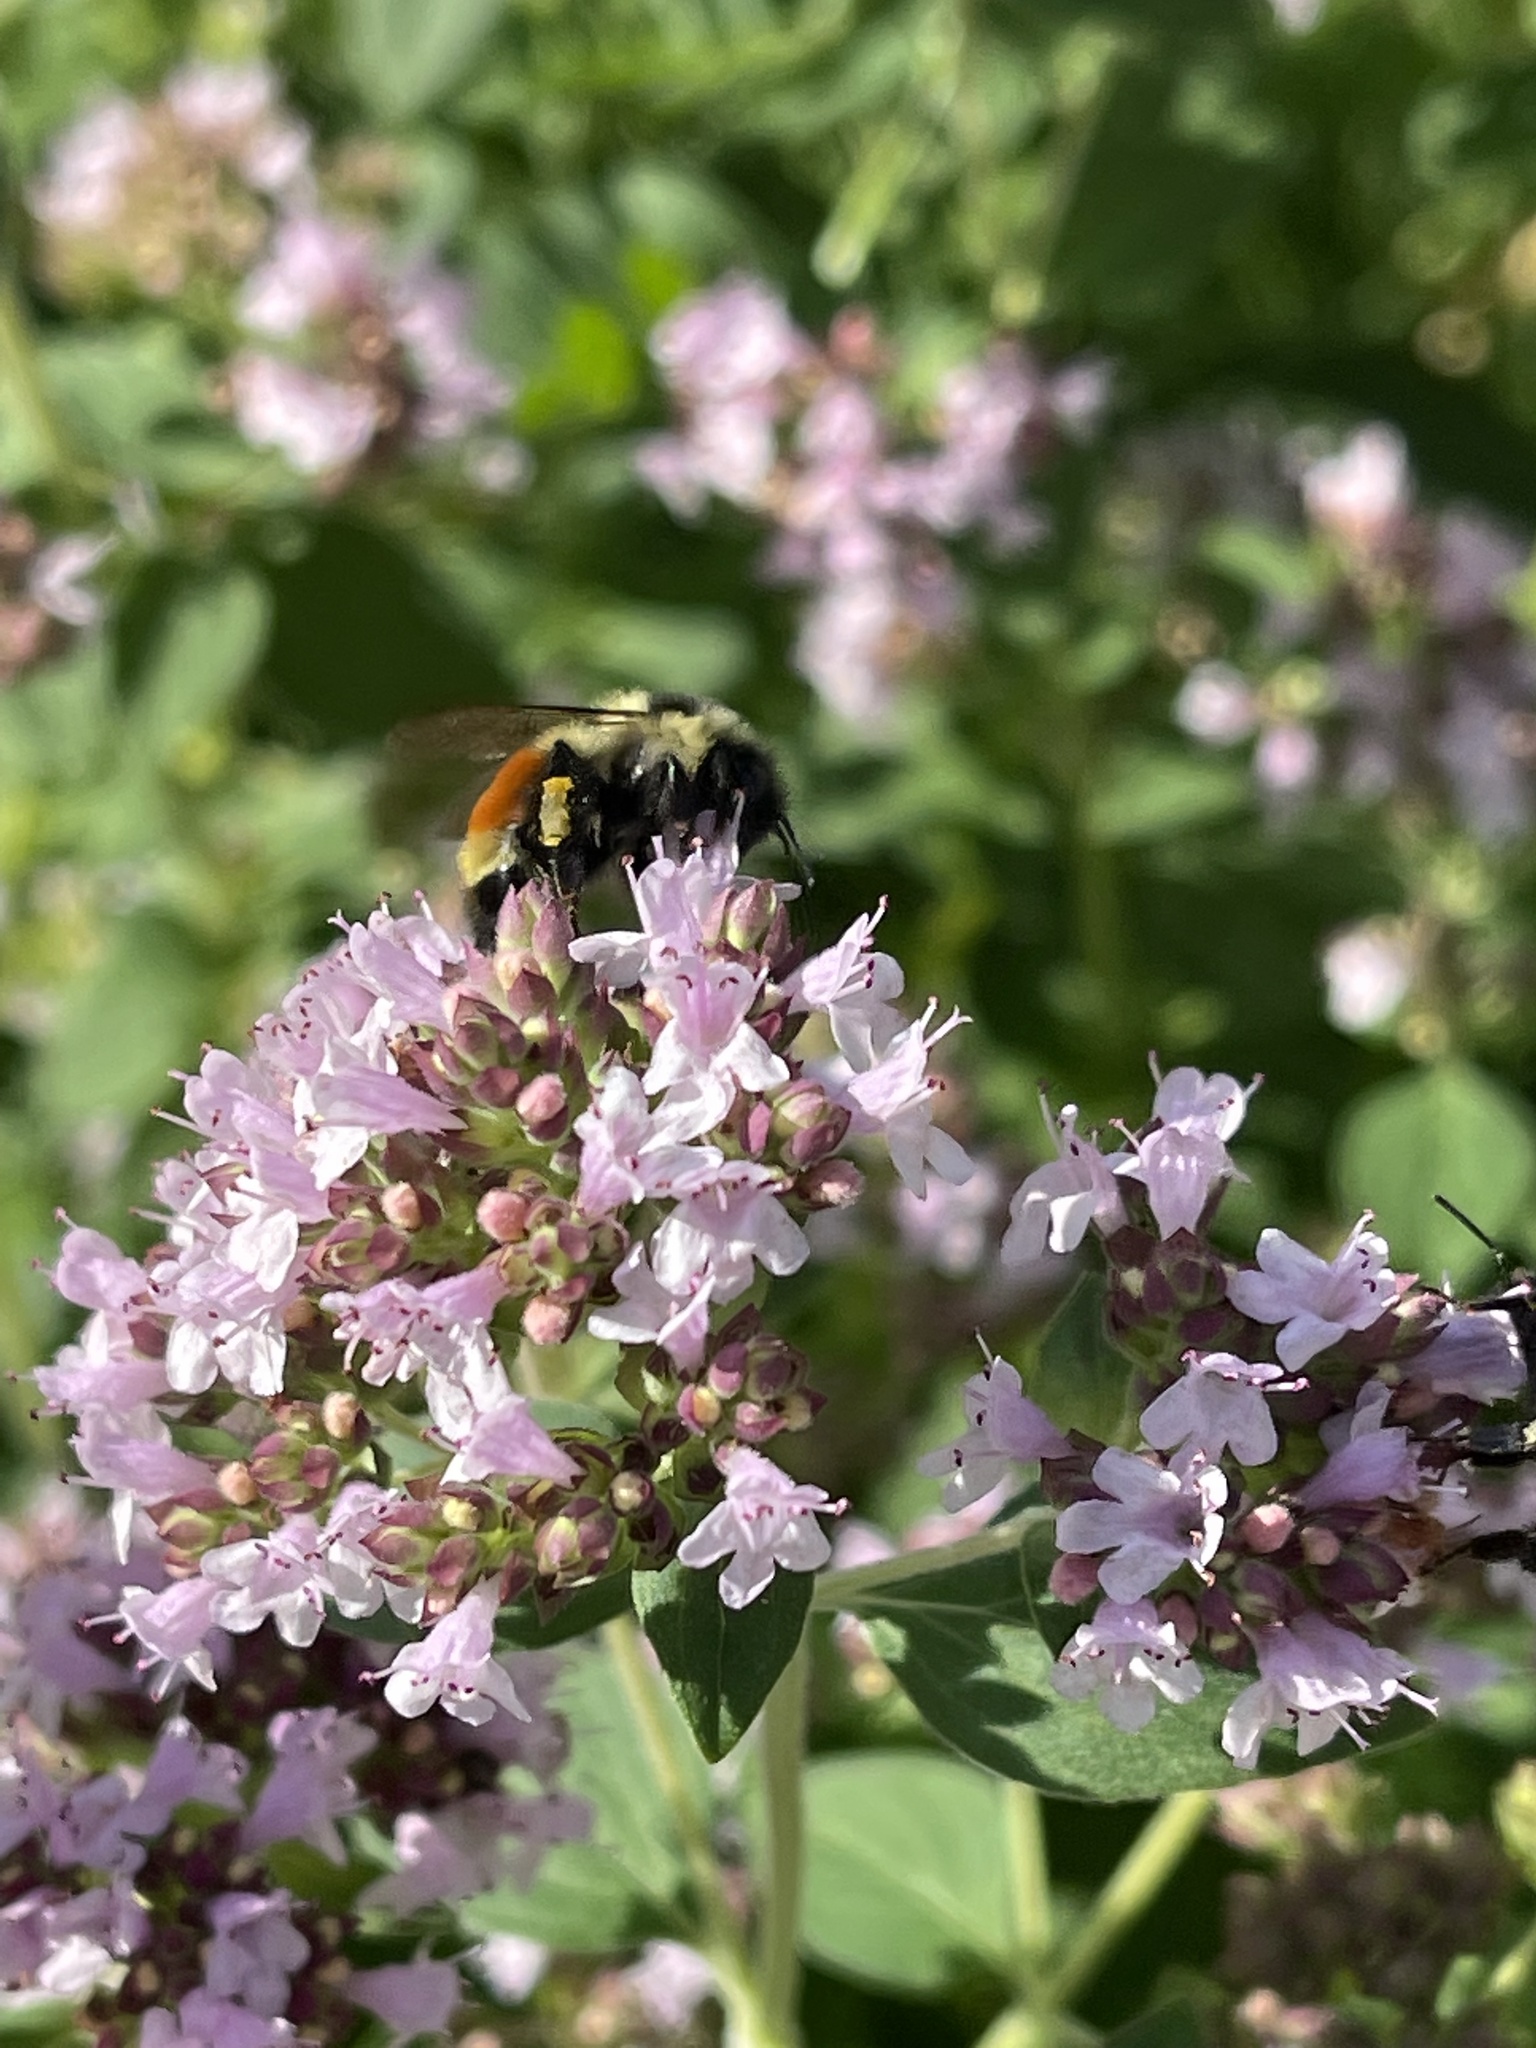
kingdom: Animalia
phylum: Arthropoda
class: Insecta
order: Hymenoptera
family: Apidae
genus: Bombus
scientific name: Bombus ternarius
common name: Tri-colored bumble bee
